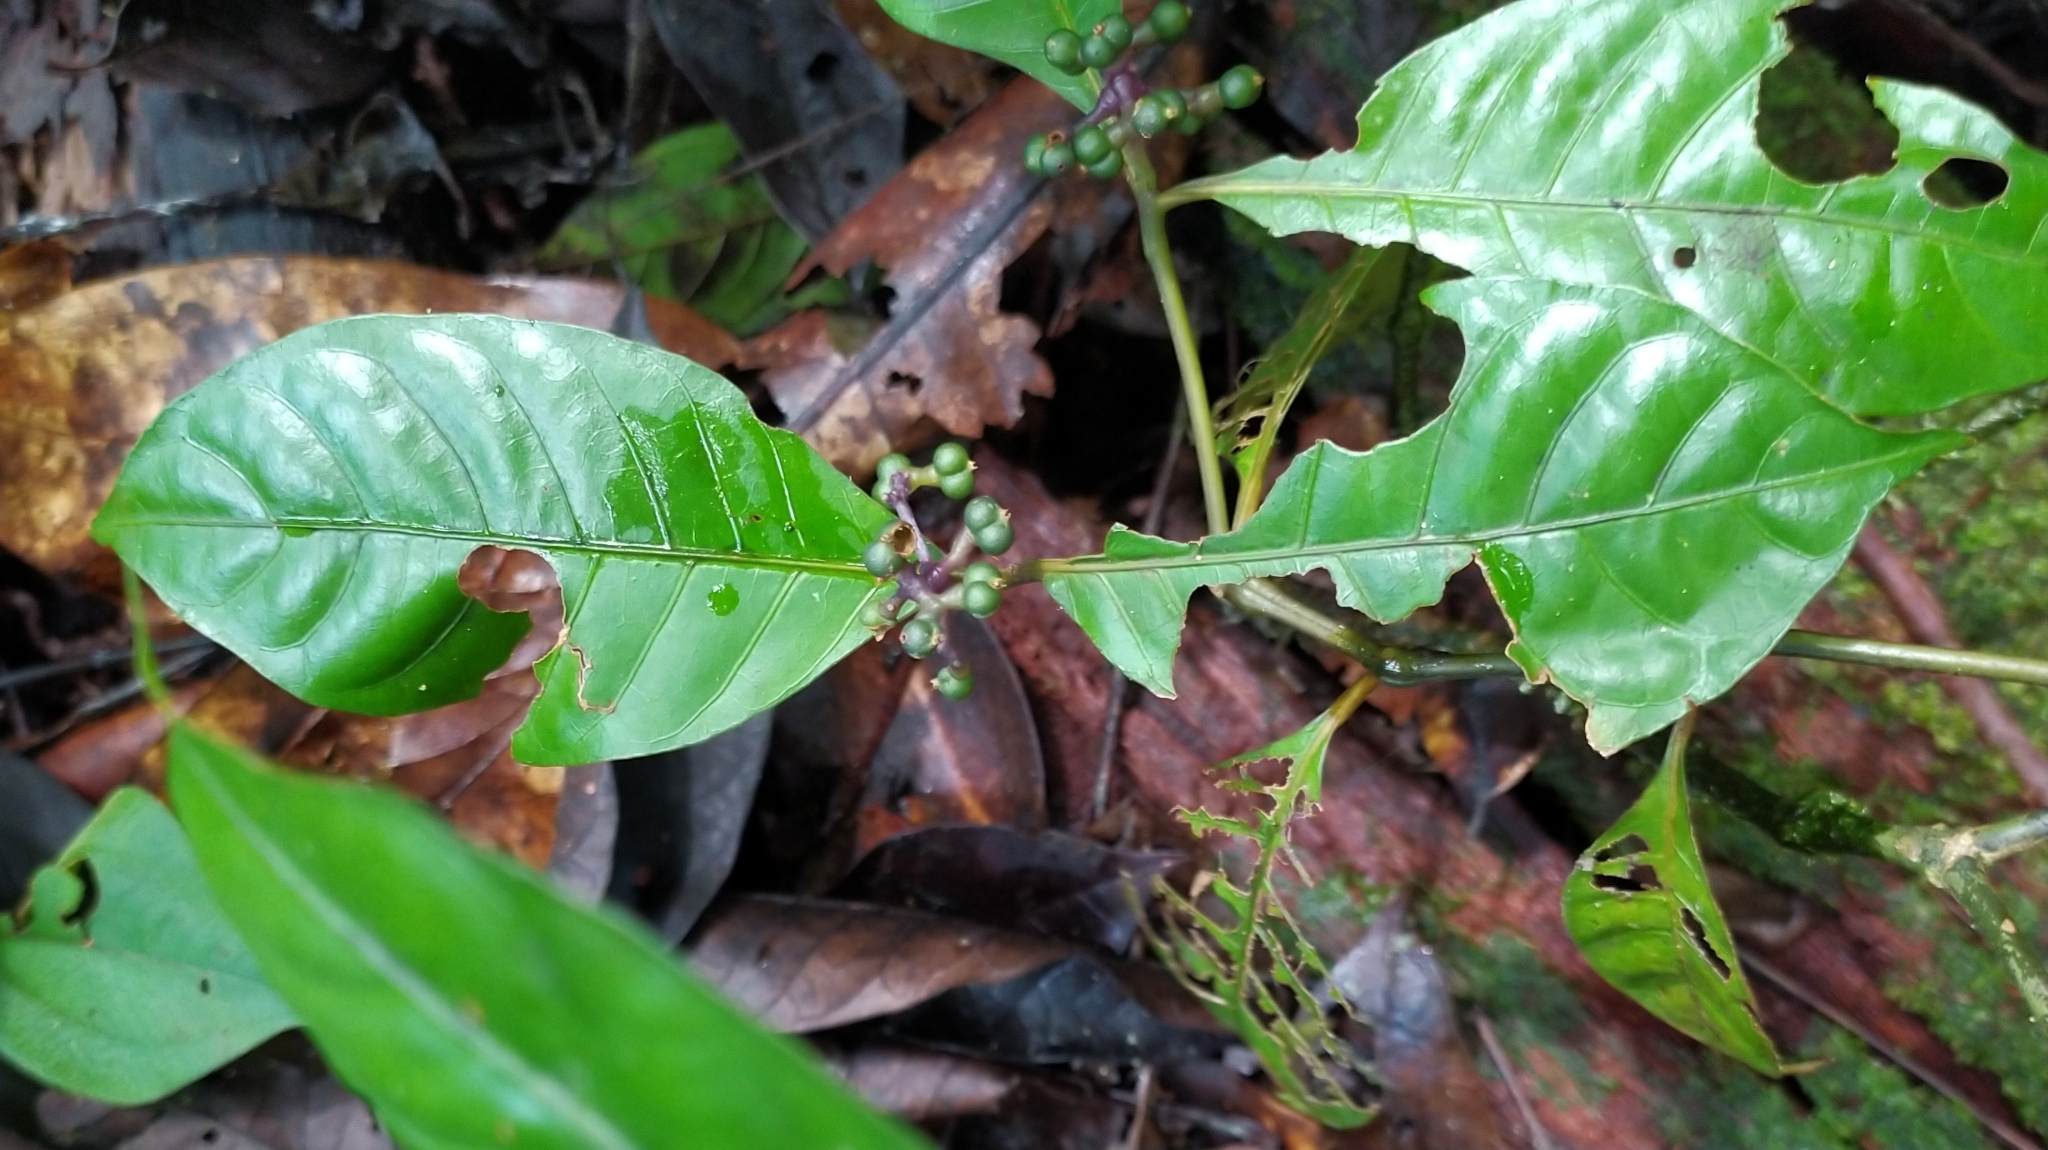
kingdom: Plantae
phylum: Tracheophyta
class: Magnoliopsida
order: Gentianales
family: Rubiaceae
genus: Palicourea
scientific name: Palicourea didymocarpos
